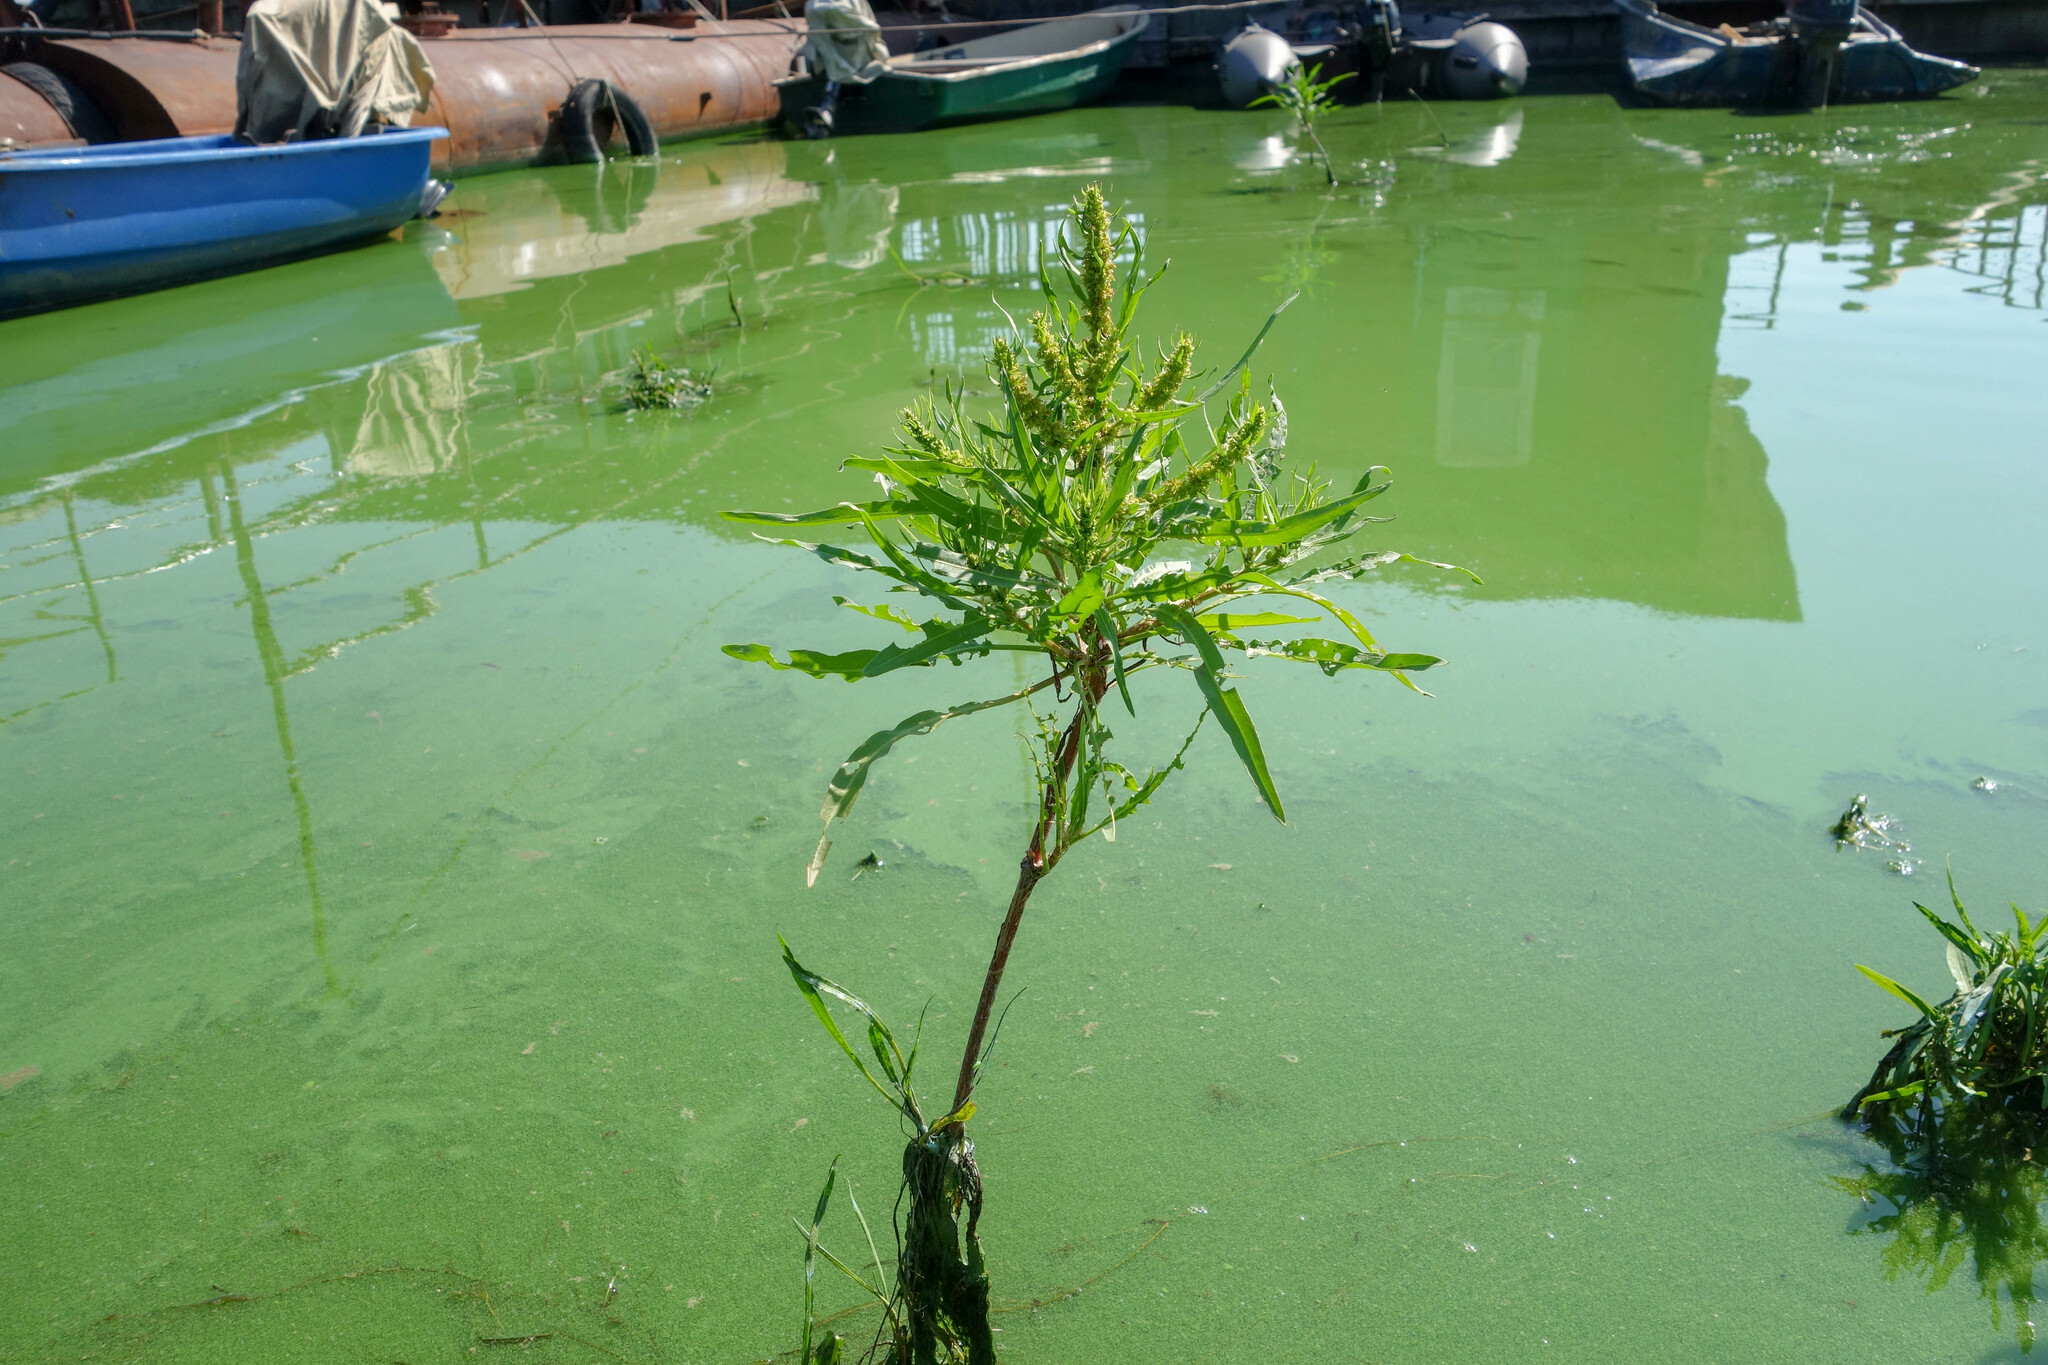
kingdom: Plantae
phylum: Tracheophyta
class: Magnoliopsida
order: Caryophyllales
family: Polygonaceae
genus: Rumex
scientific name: Rumex maritimus
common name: Golden dock
